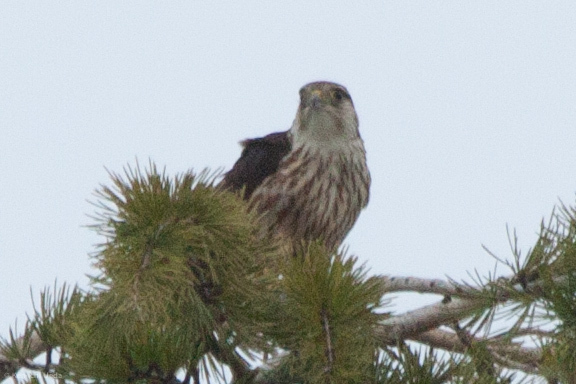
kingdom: Animalia
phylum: Chordata
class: Aves
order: Falconiformes
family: Falconidae
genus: Falco
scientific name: Falco columbarius
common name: Merlin
